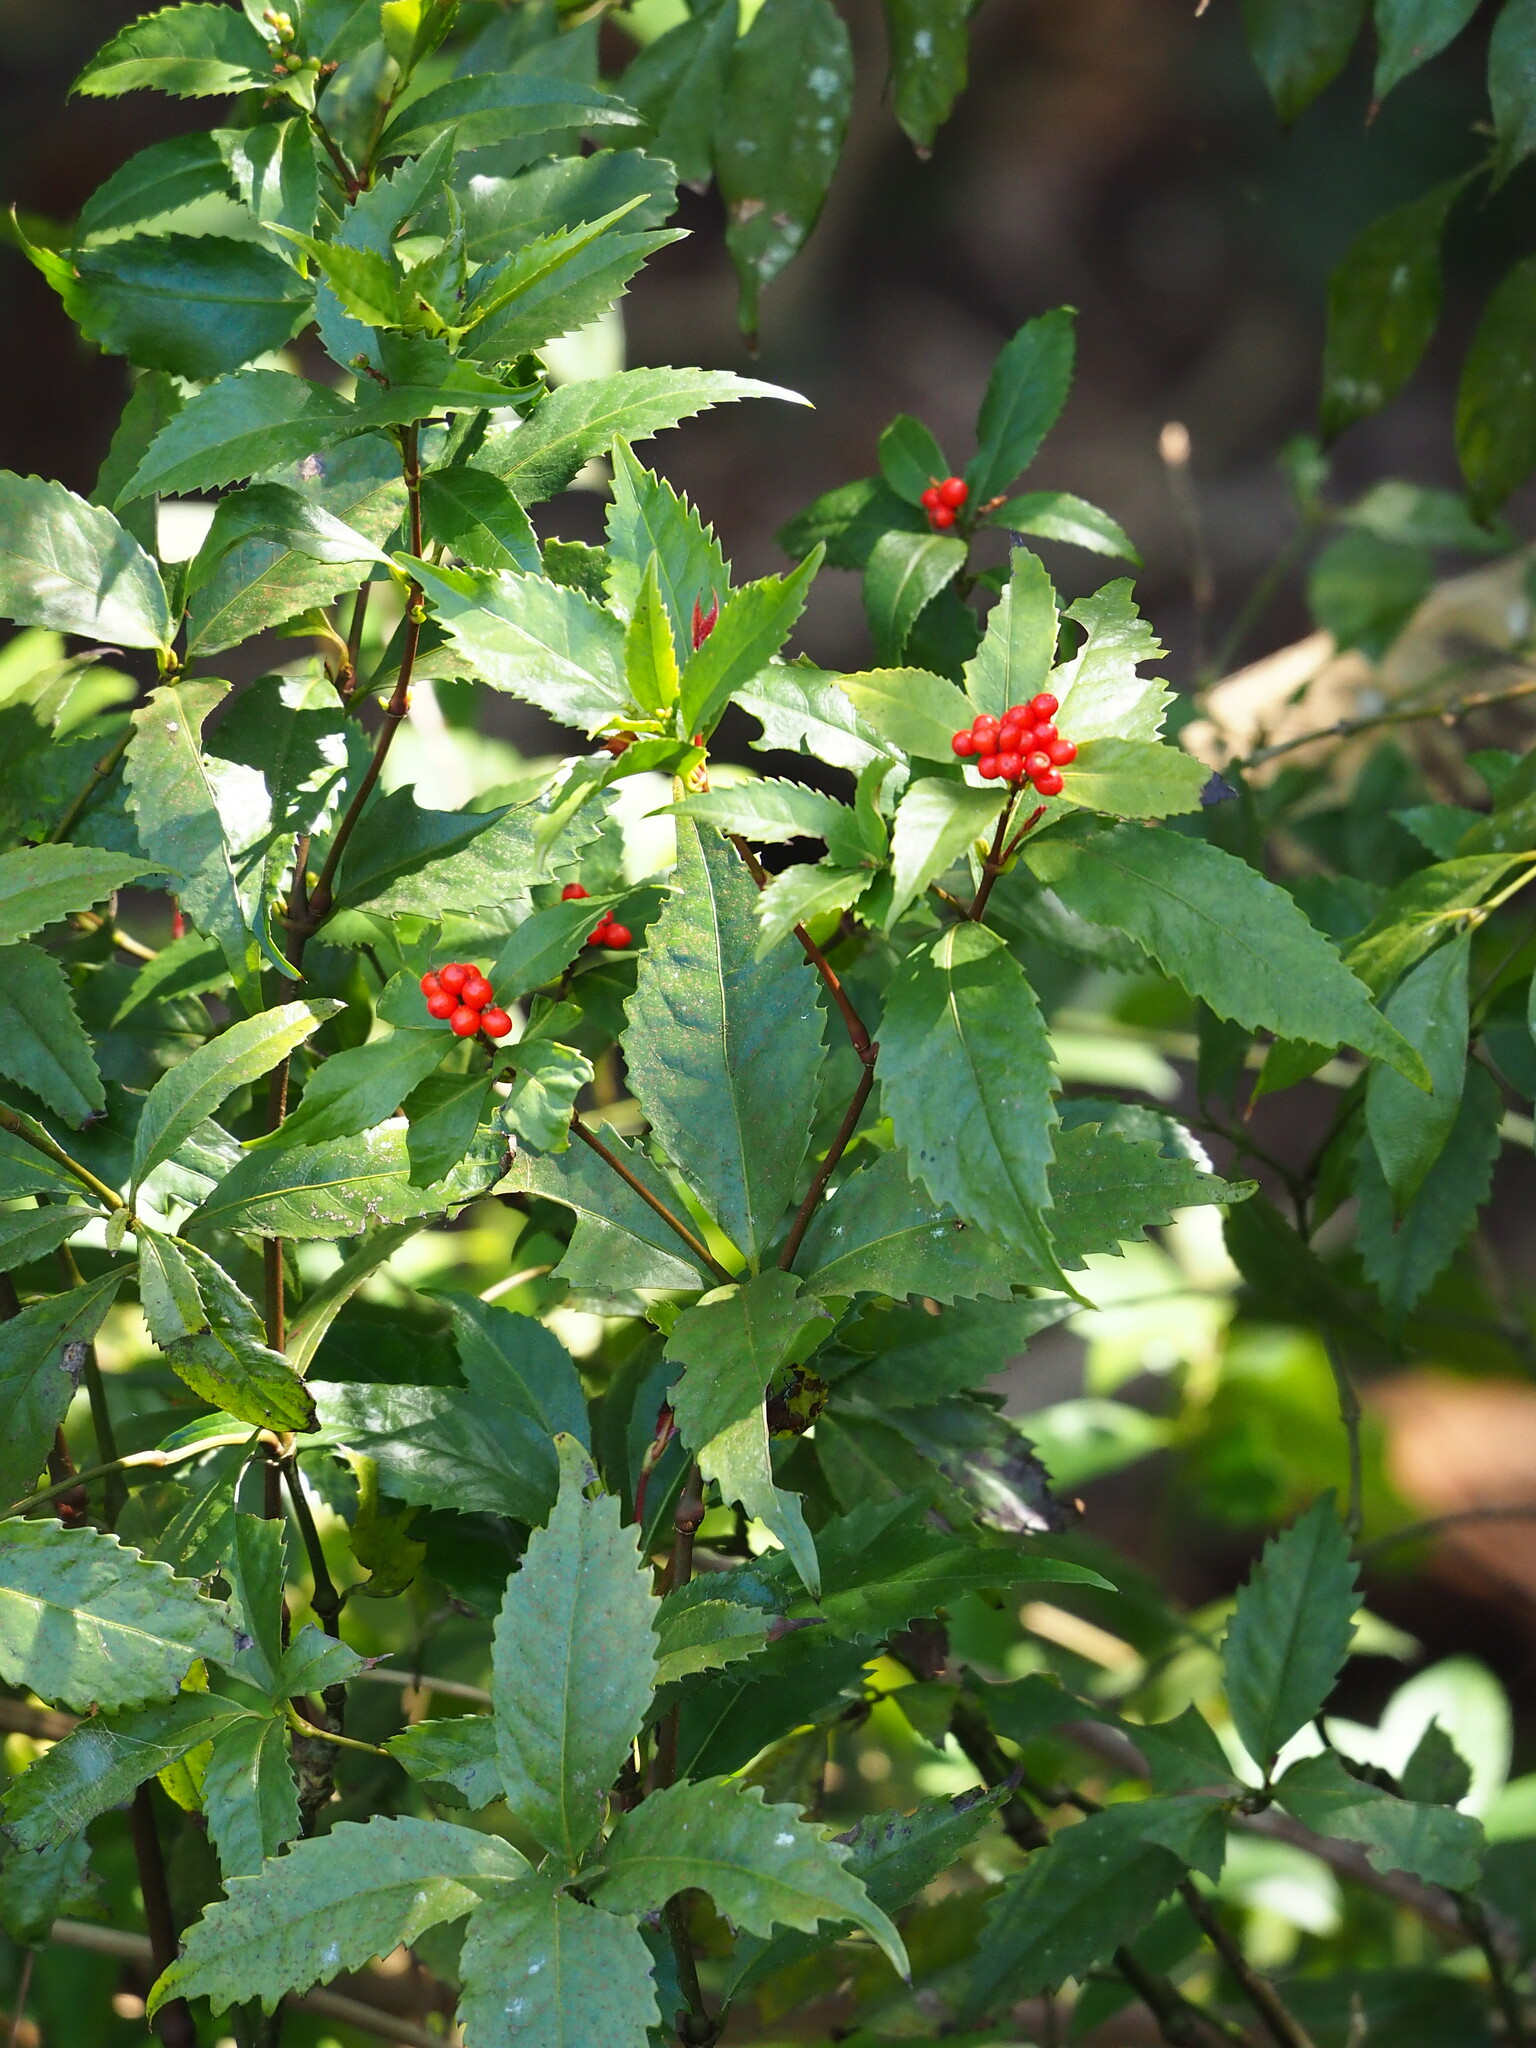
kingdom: Plantae
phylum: Tracheophyta
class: Magnoliopsida
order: Chloranthales
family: Chloranthaceae
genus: Sarcandra
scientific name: Sarcandra glabra
